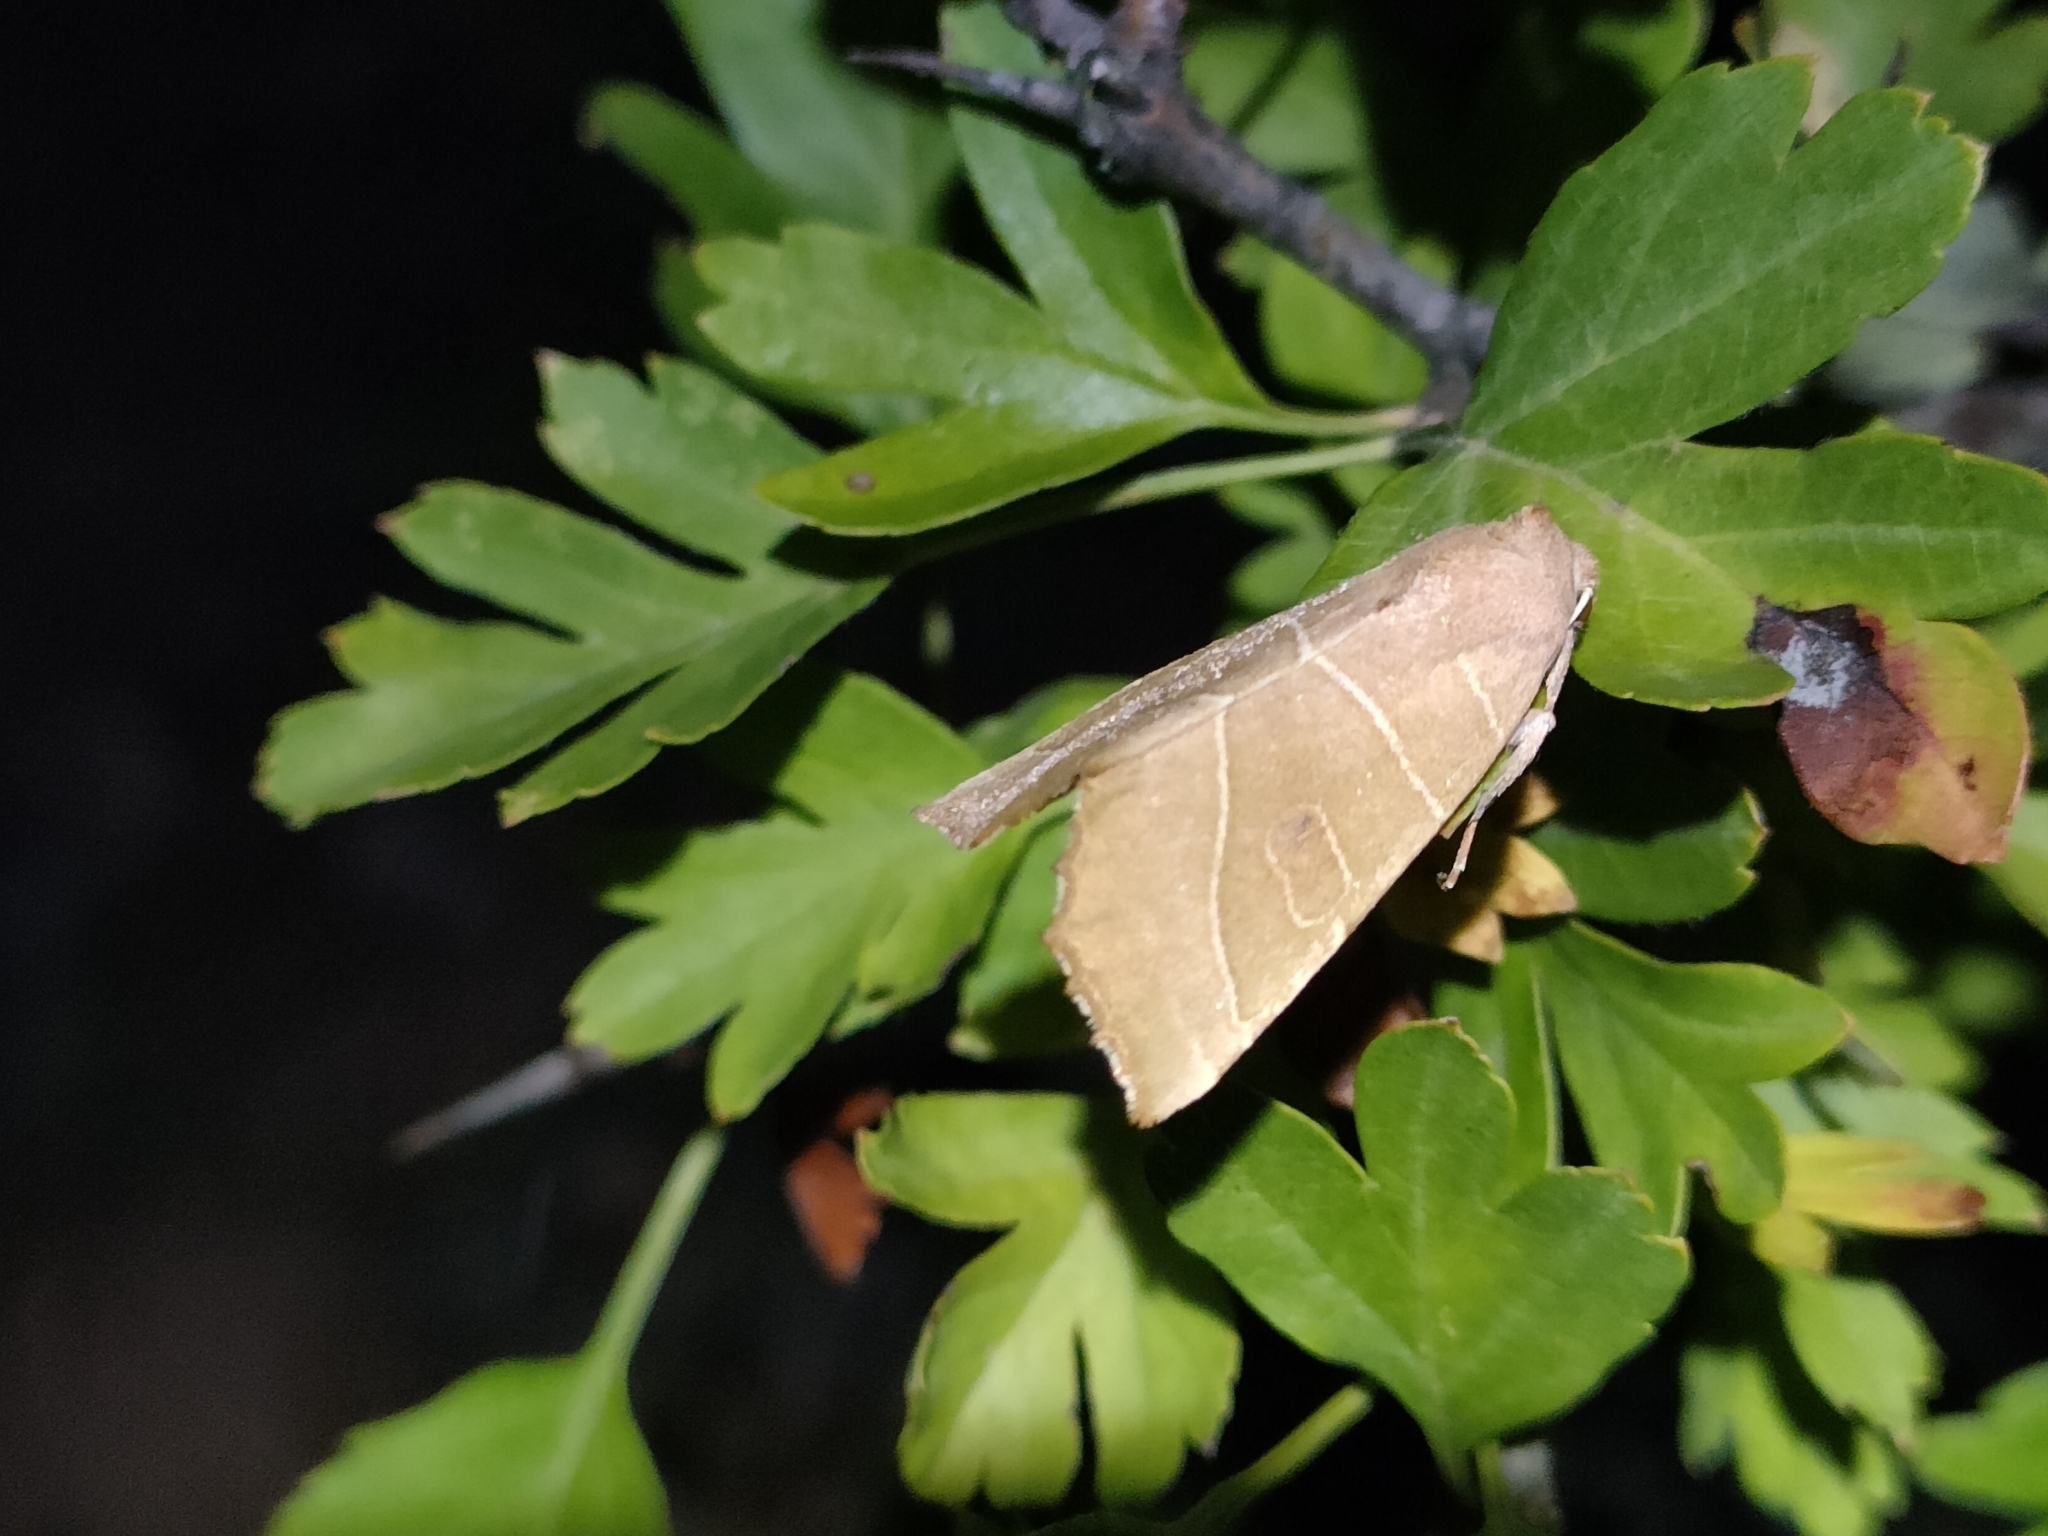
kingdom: Animalia
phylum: Arthropoda
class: Insecta
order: Lepidoptera
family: Noctuidae
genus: Atethmia
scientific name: Atethmia algirica
